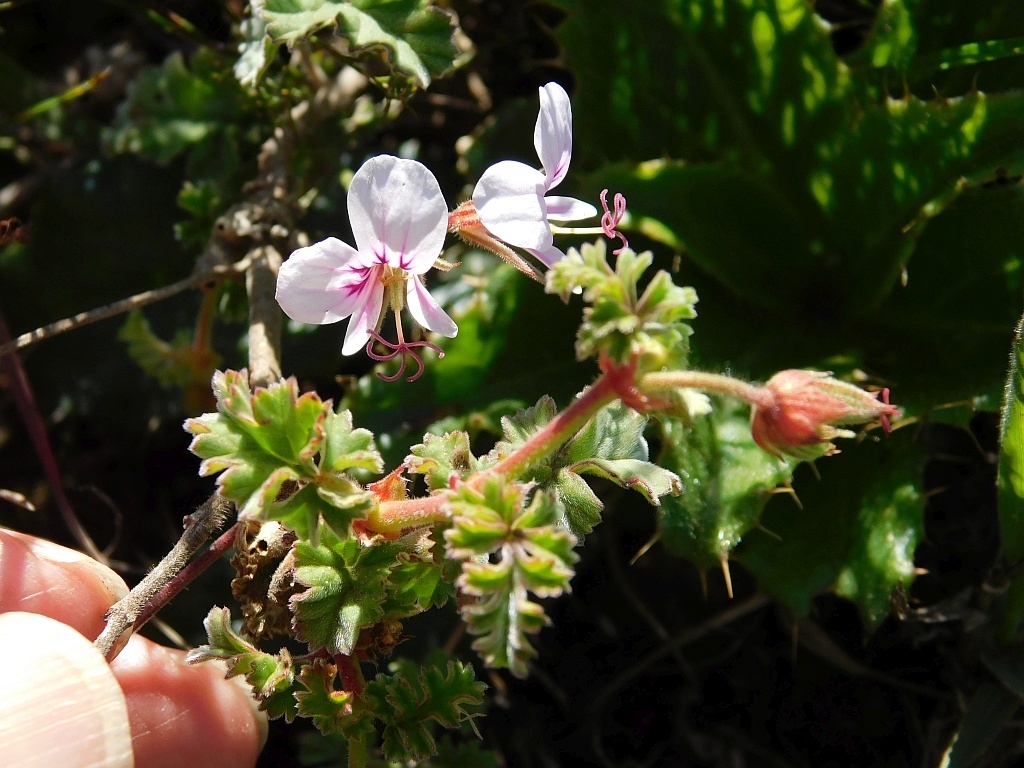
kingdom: Plantae
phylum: Tracheophyta
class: Magnoliopsida
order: Geraniales
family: Geraniaceae
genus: Pelargonium
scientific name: Pelargonium myrrhifolium
